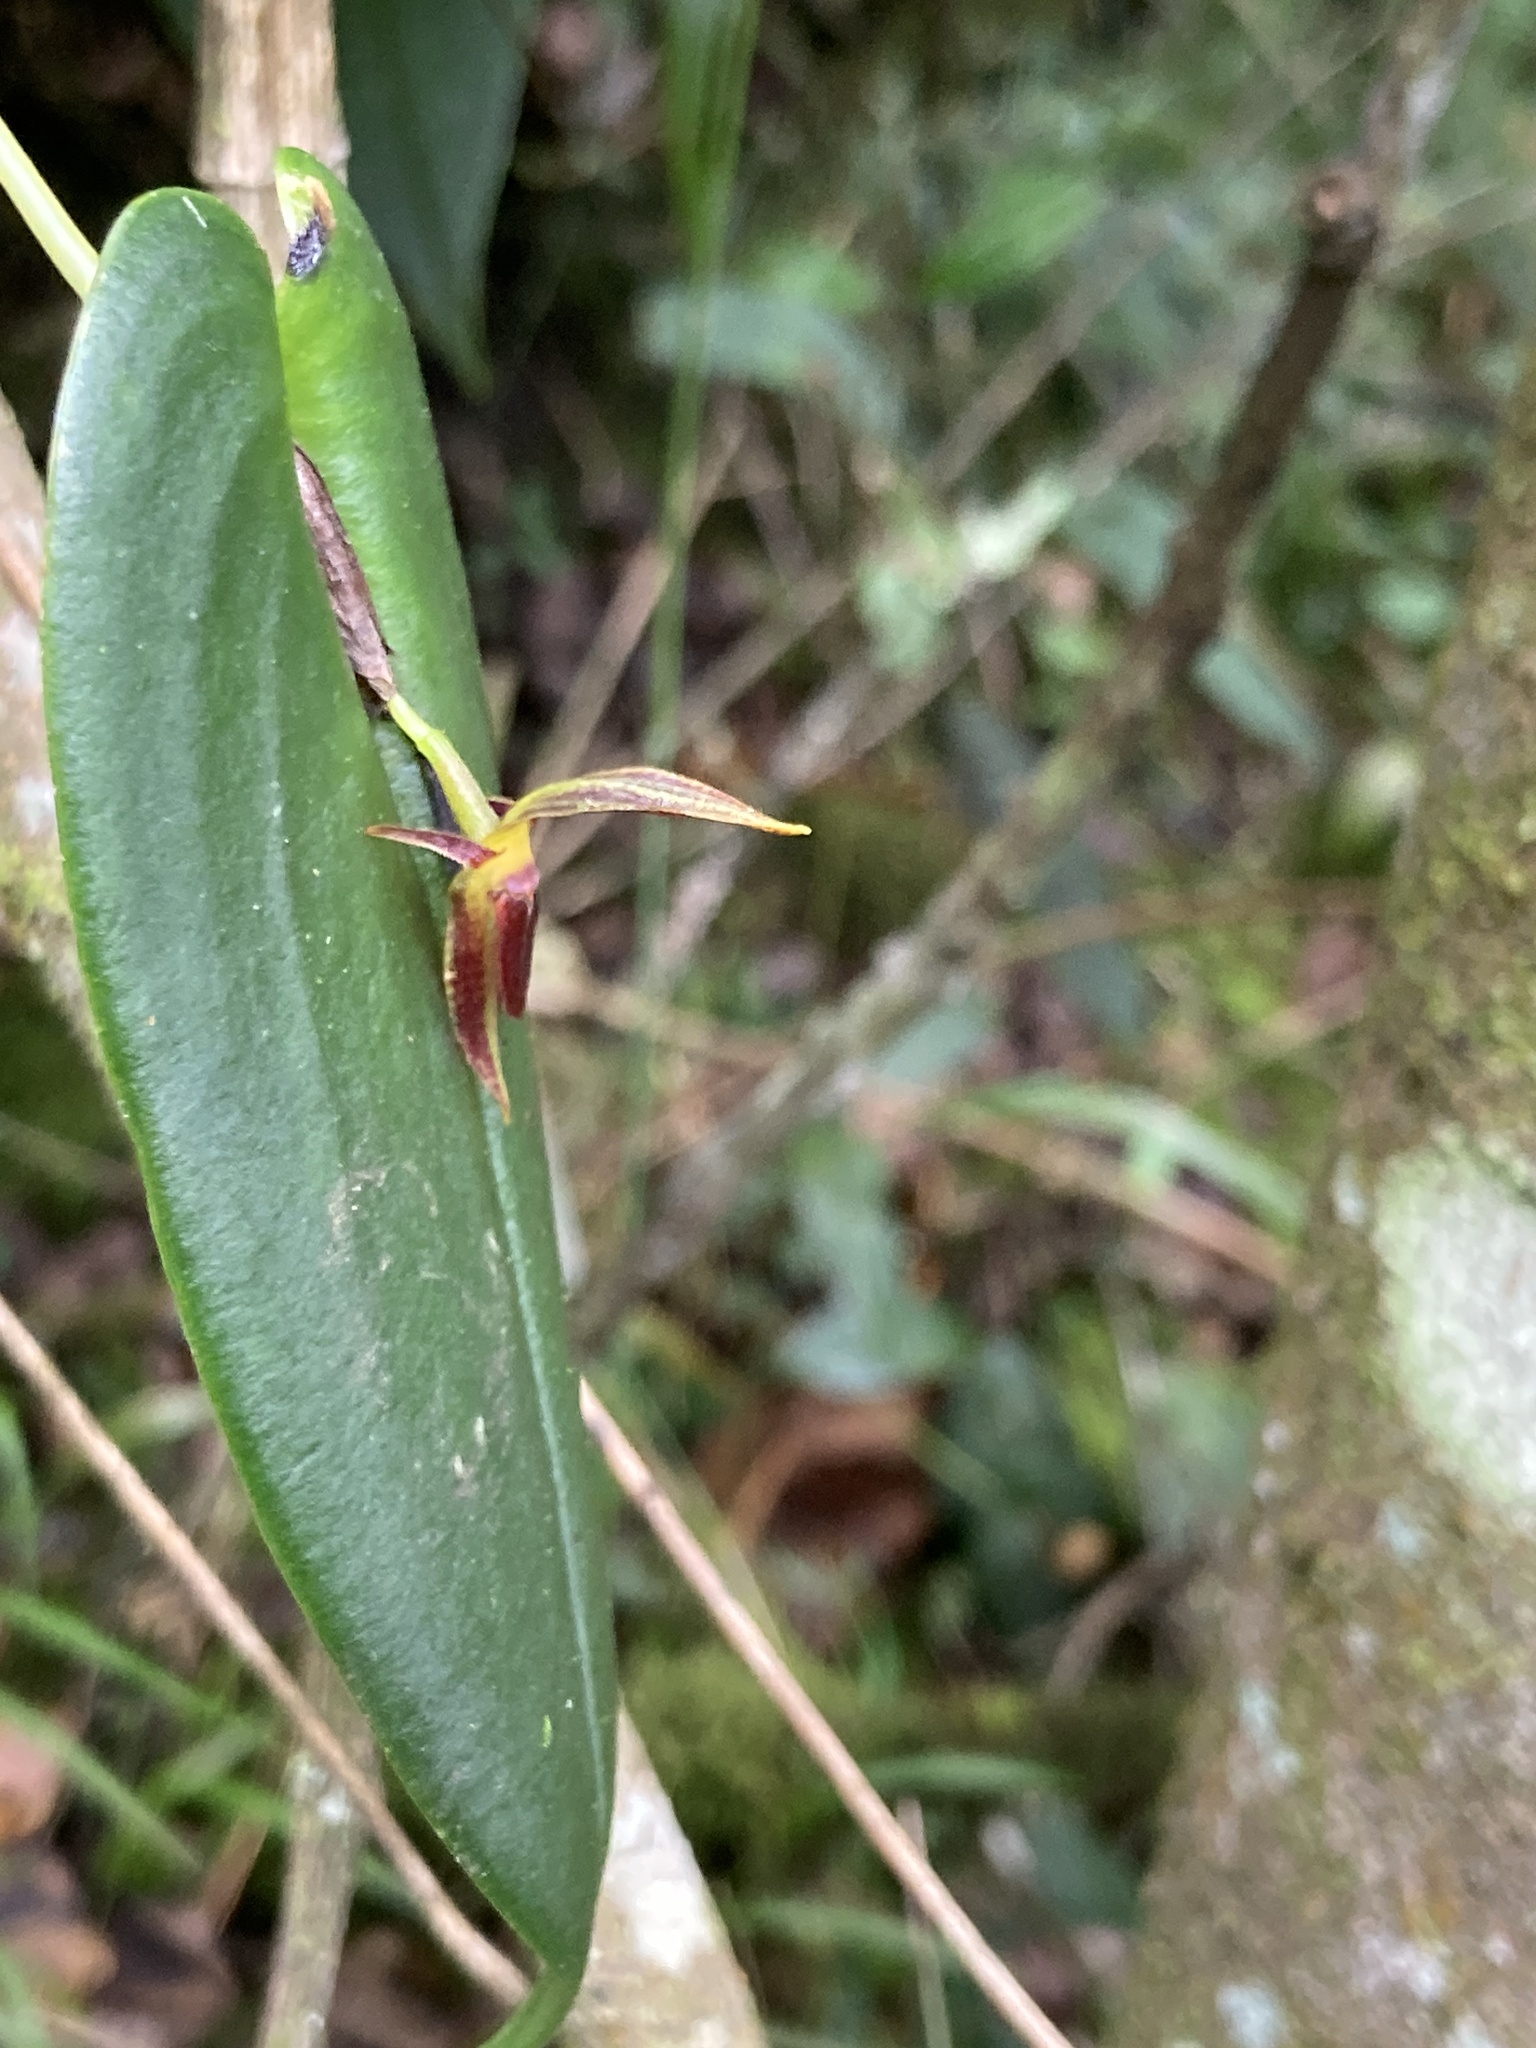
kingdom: Plantae
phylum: Tracheophyta
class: Liliopsida
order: Asparagales
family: Orchidaceae
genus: Pleurothallis
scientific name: Pleurothallis coriacardia
